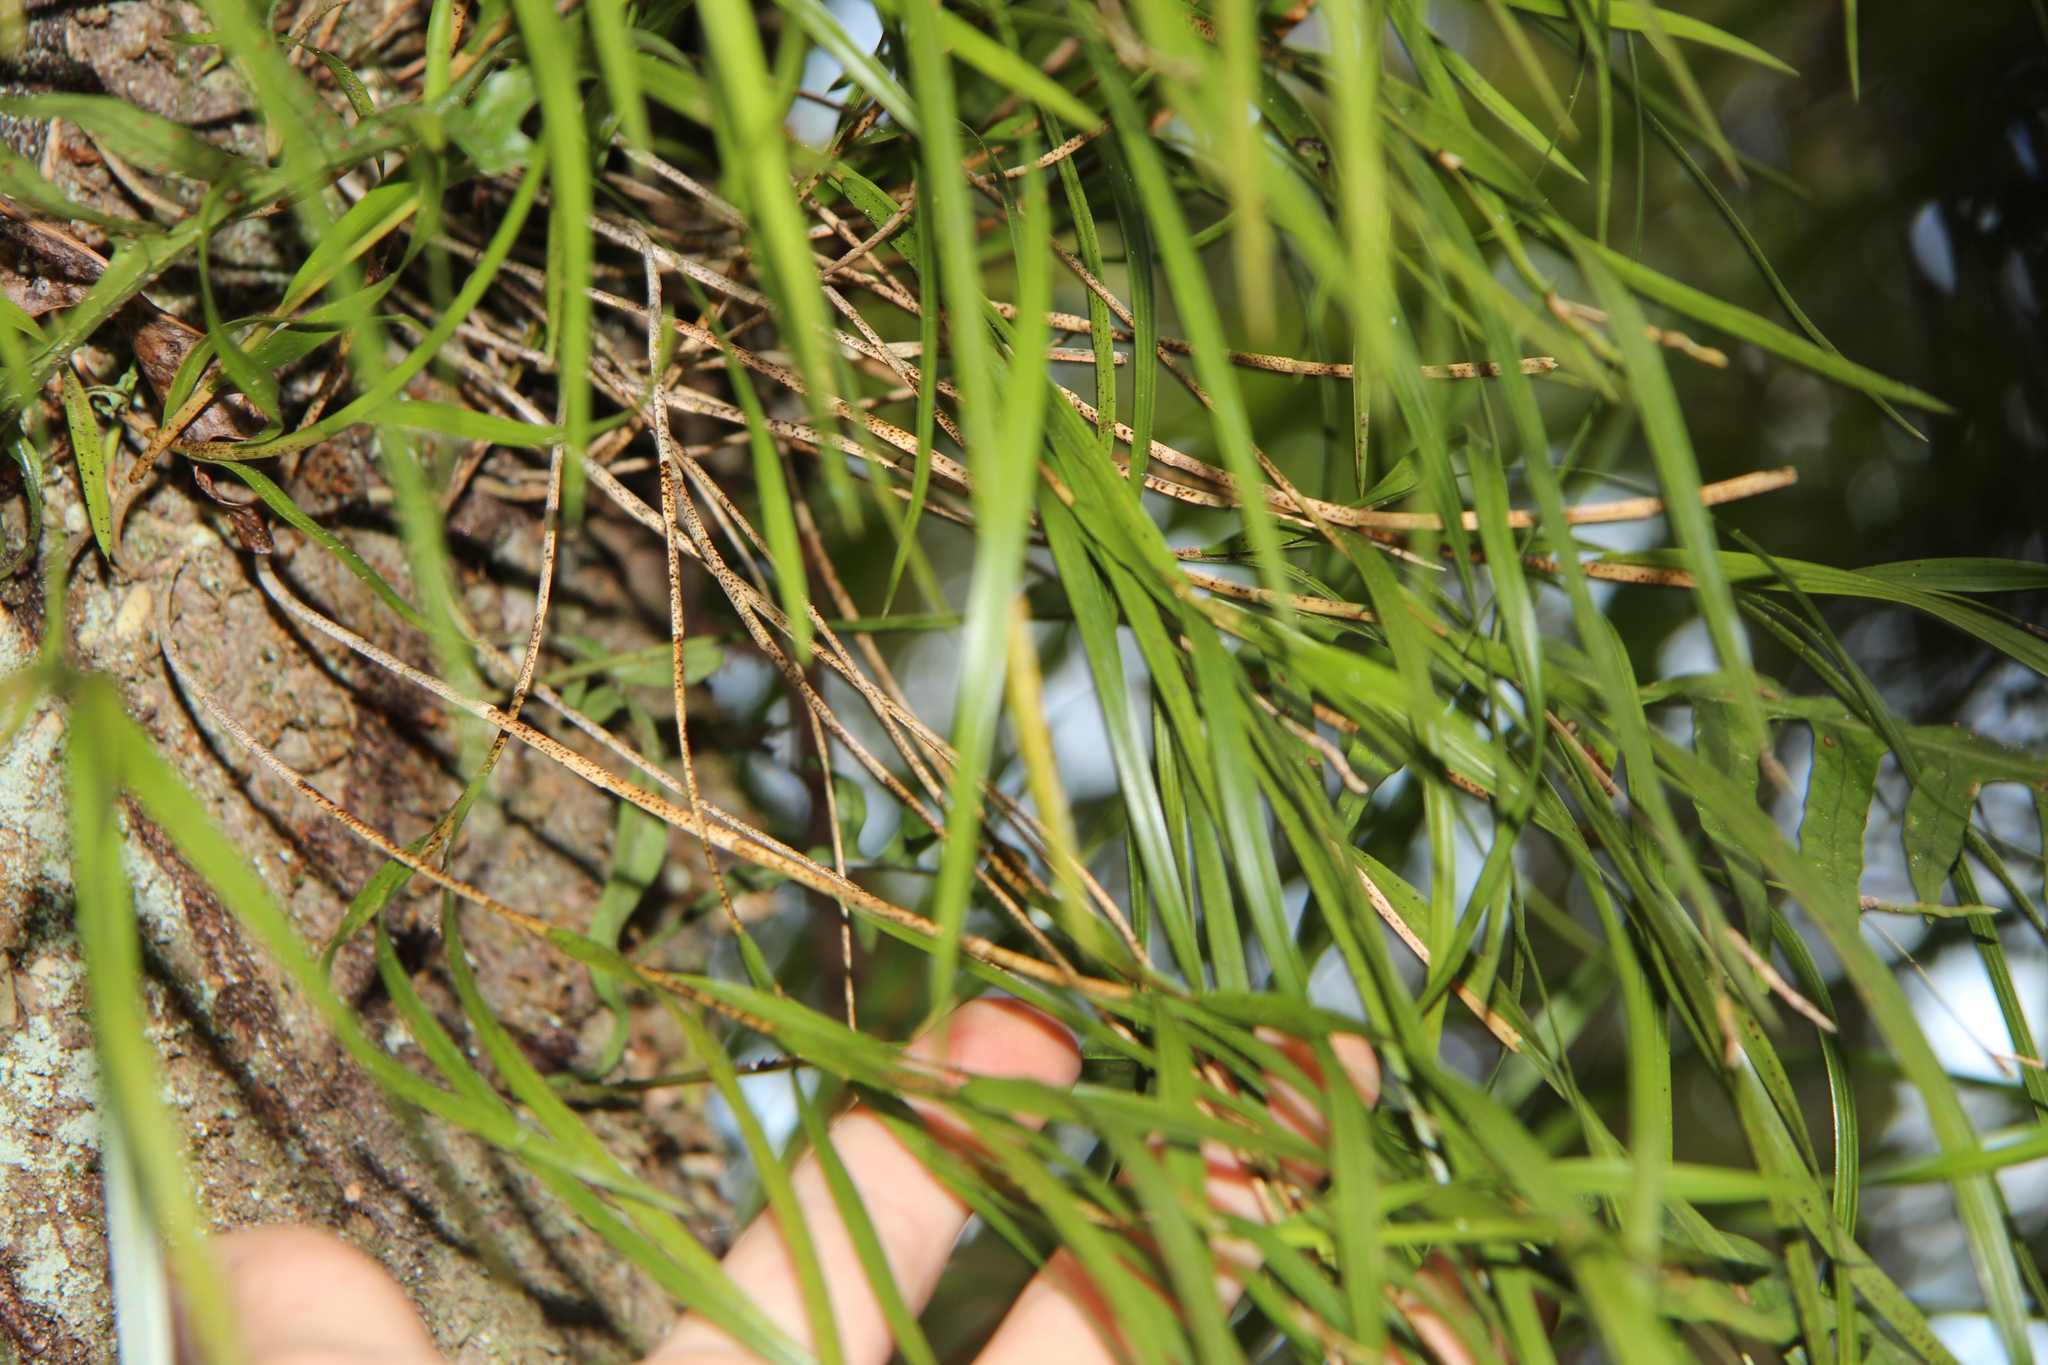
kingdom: Plantae
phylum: Tracheophyta
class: Liliopsida
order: Asparagales
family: Orchidaceae
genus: Earina
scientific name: Earina mucronata
